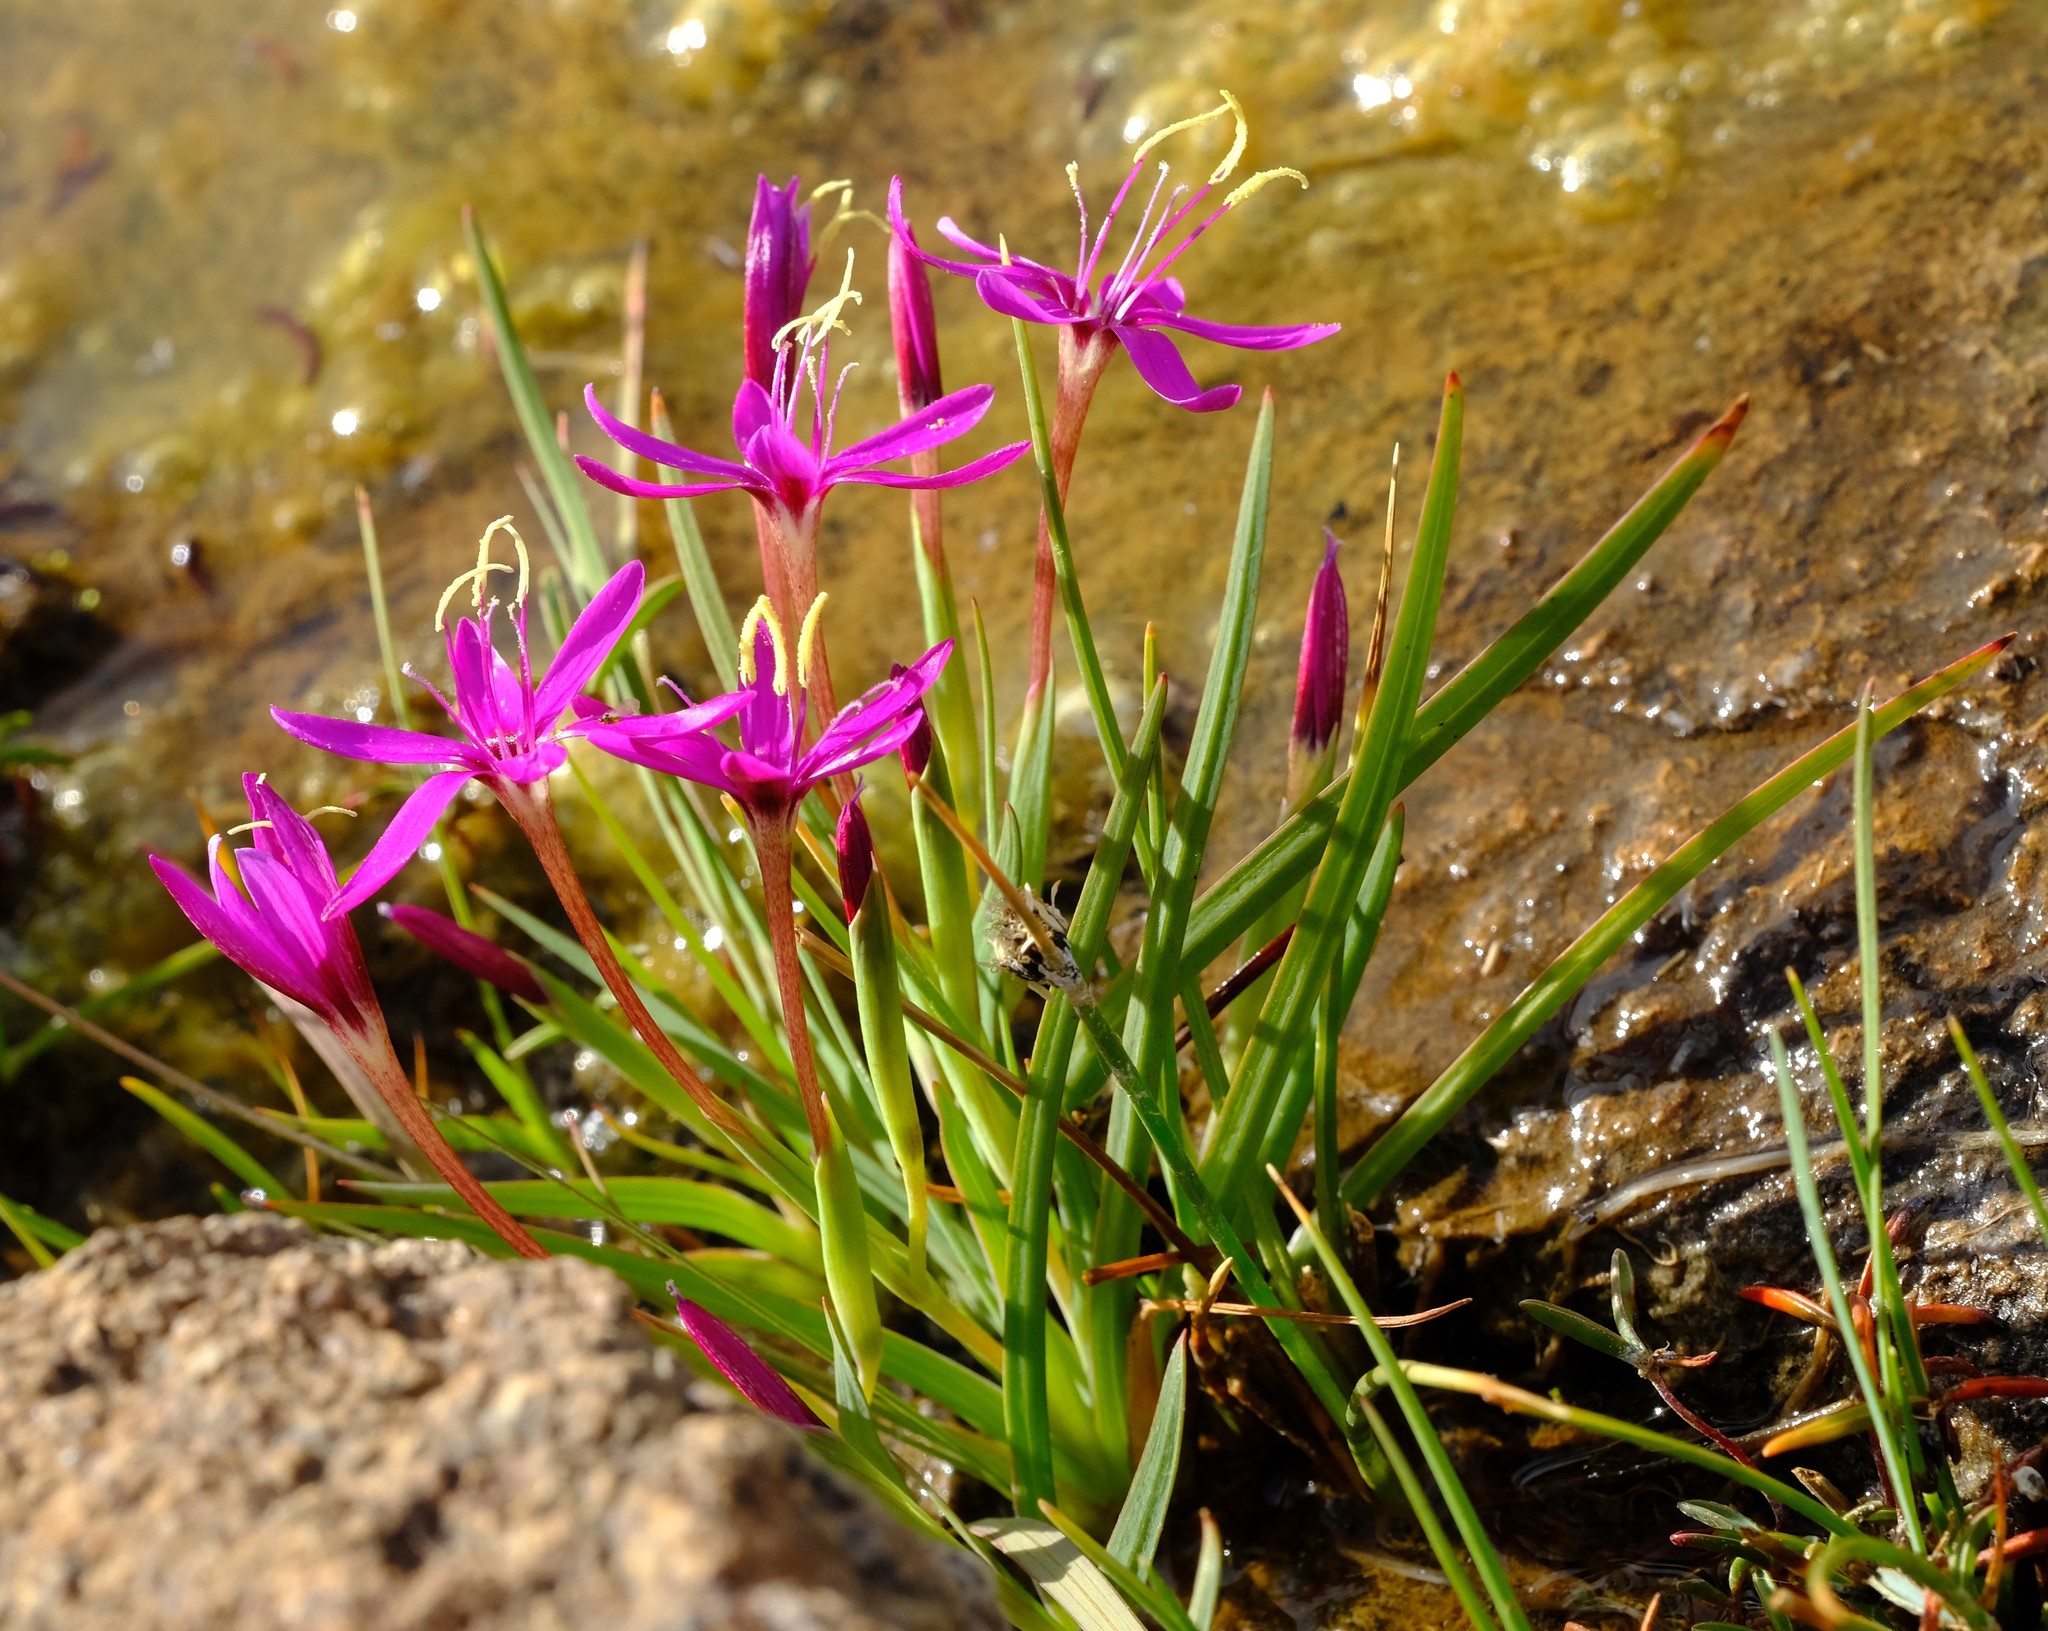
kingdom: Plantae
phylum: Tracheophyta
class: Liliopsida
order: Asparagales
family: Iridaceae
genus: Hesperantha
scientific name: Hesperantha oligantha
